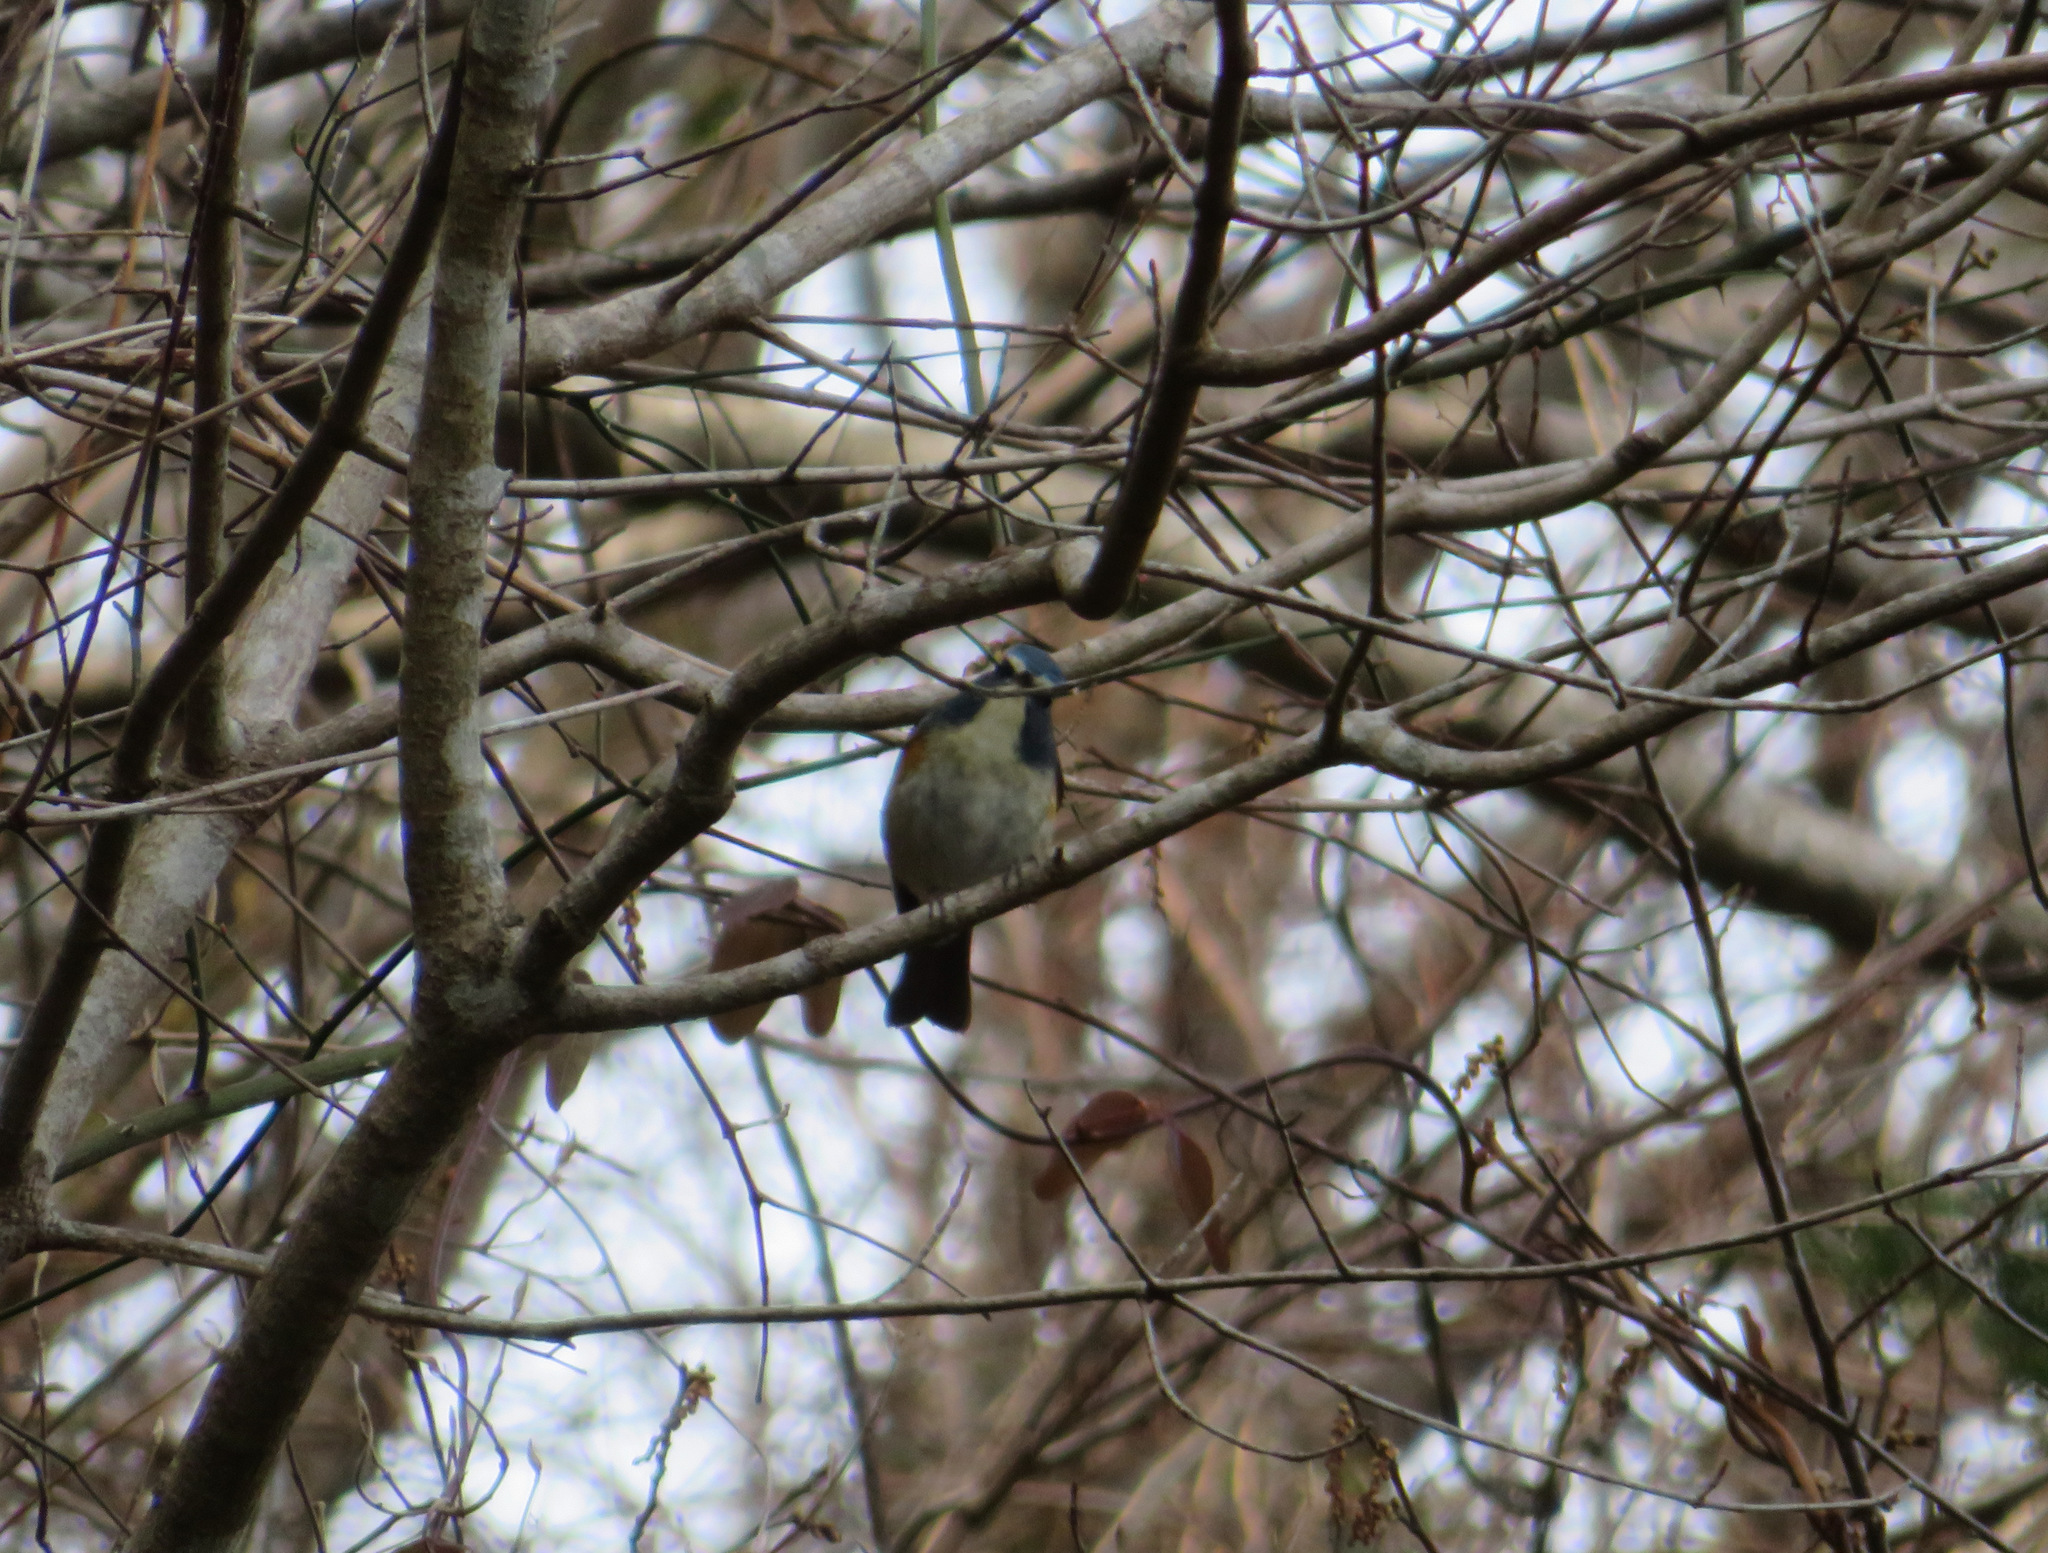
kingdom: Animalia
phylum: Chordata
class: Aves
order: Passeriformes
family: Muscicapidae
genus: Tarsiger
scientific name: Tarsiger cyanurus
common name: Red-flanked bluetail
